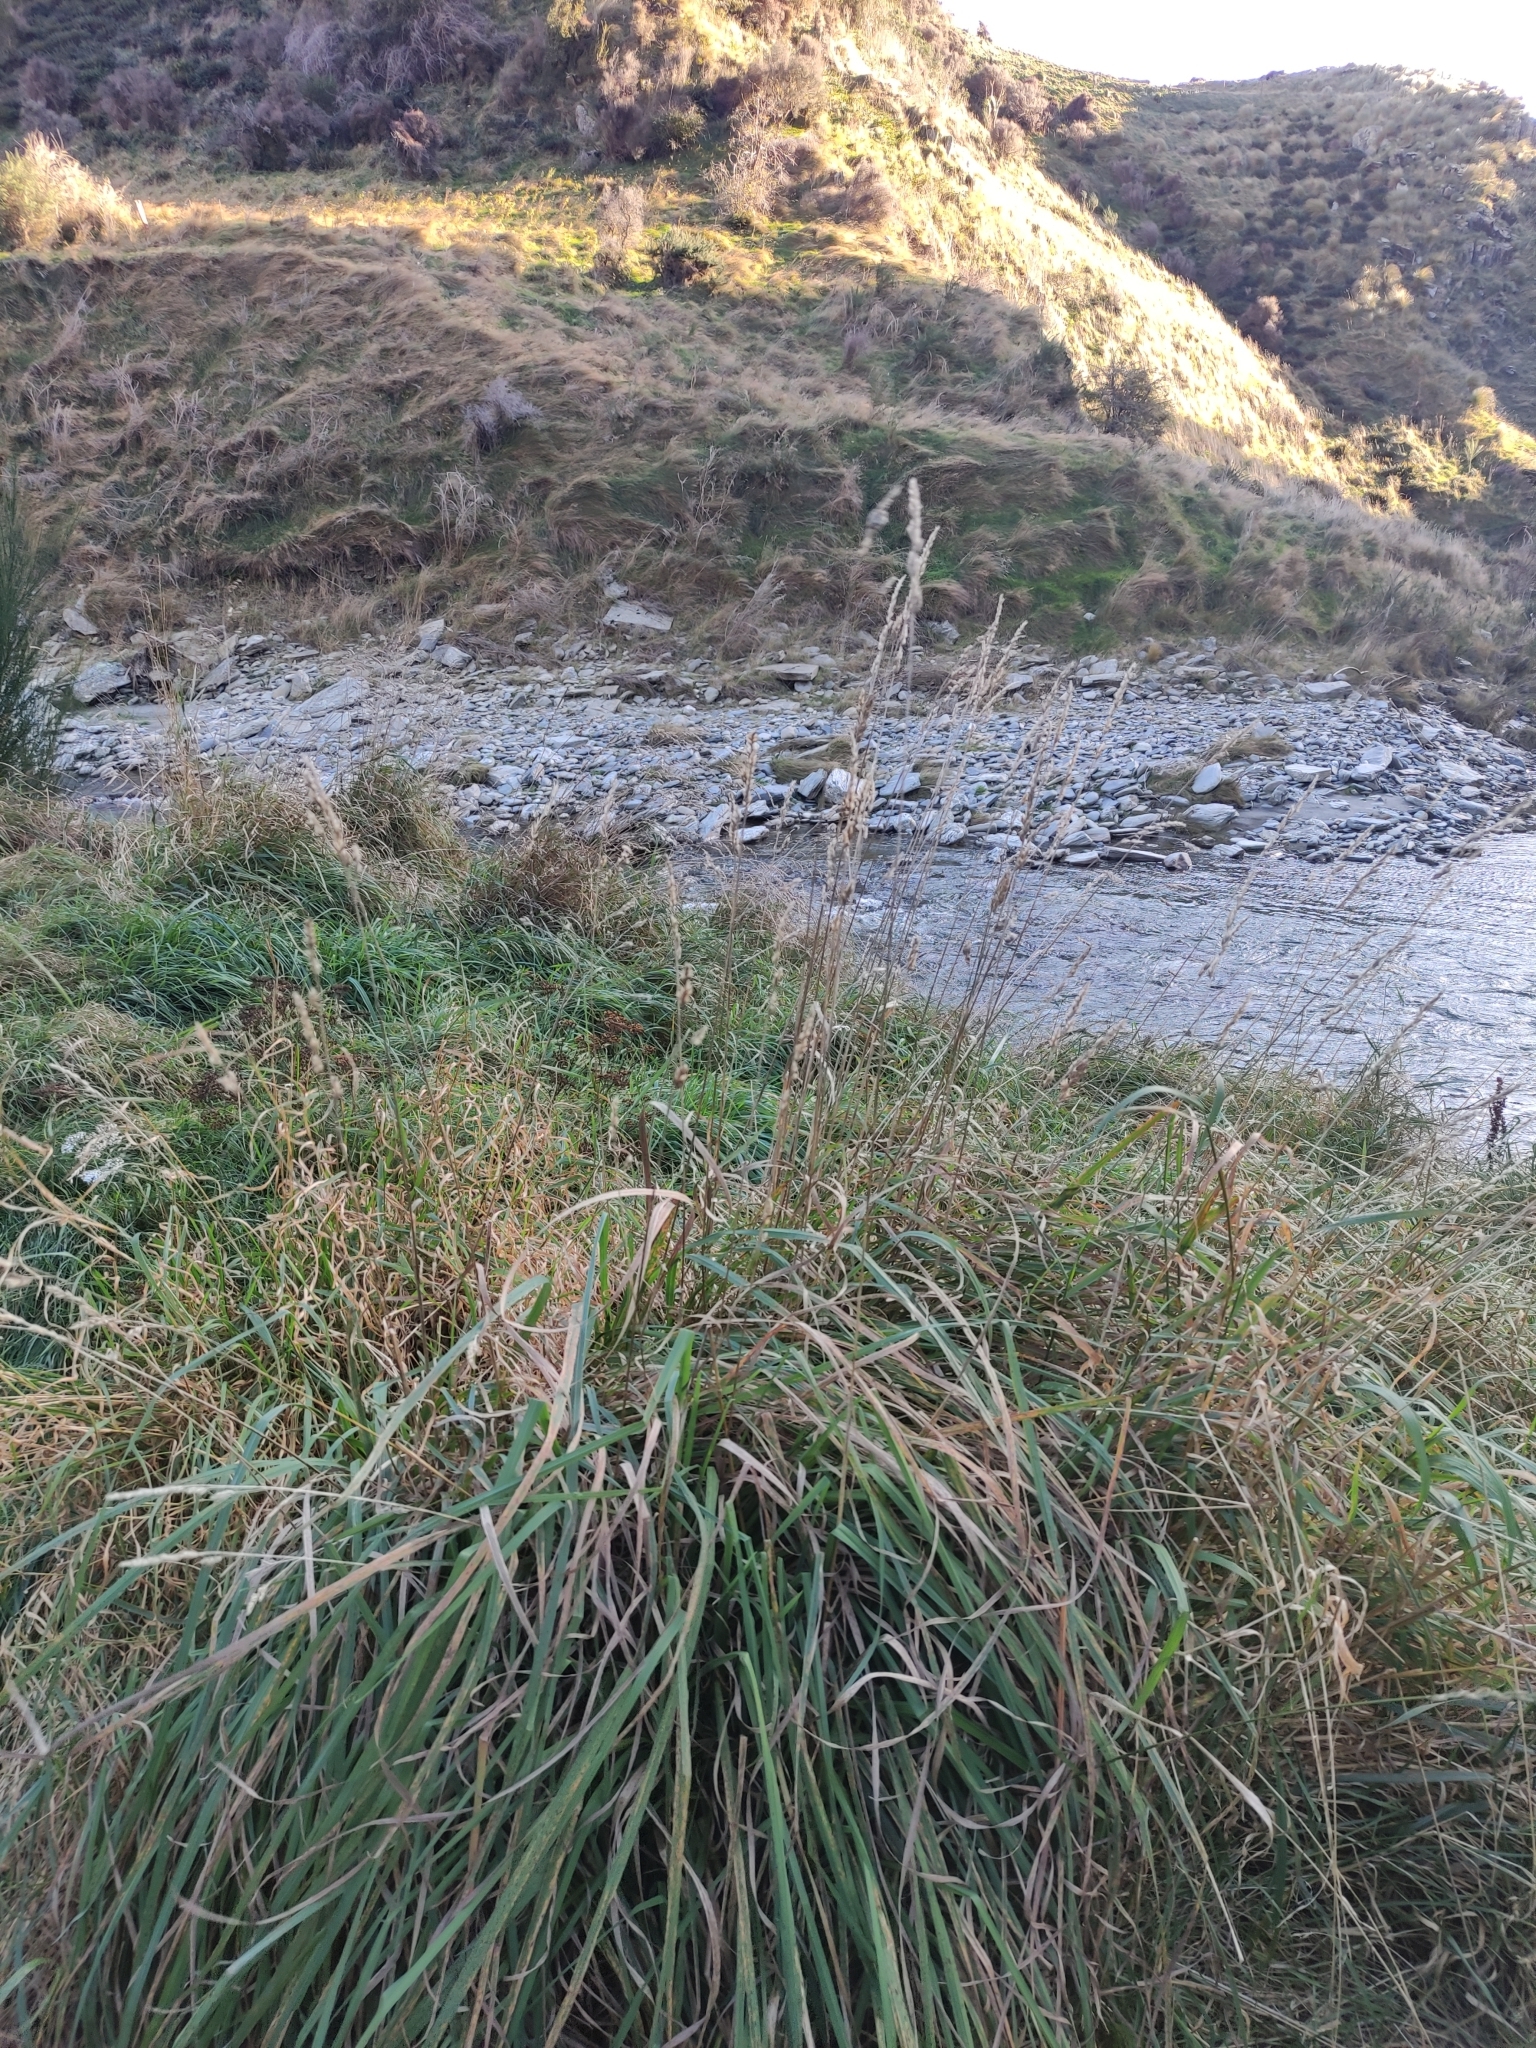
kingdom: Plantae
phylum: Tracheophyta
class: Liliopsida
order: Poales
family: Poaceae
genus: Dactylis
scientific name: Dactylis glomerata
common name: Orchardgrass
